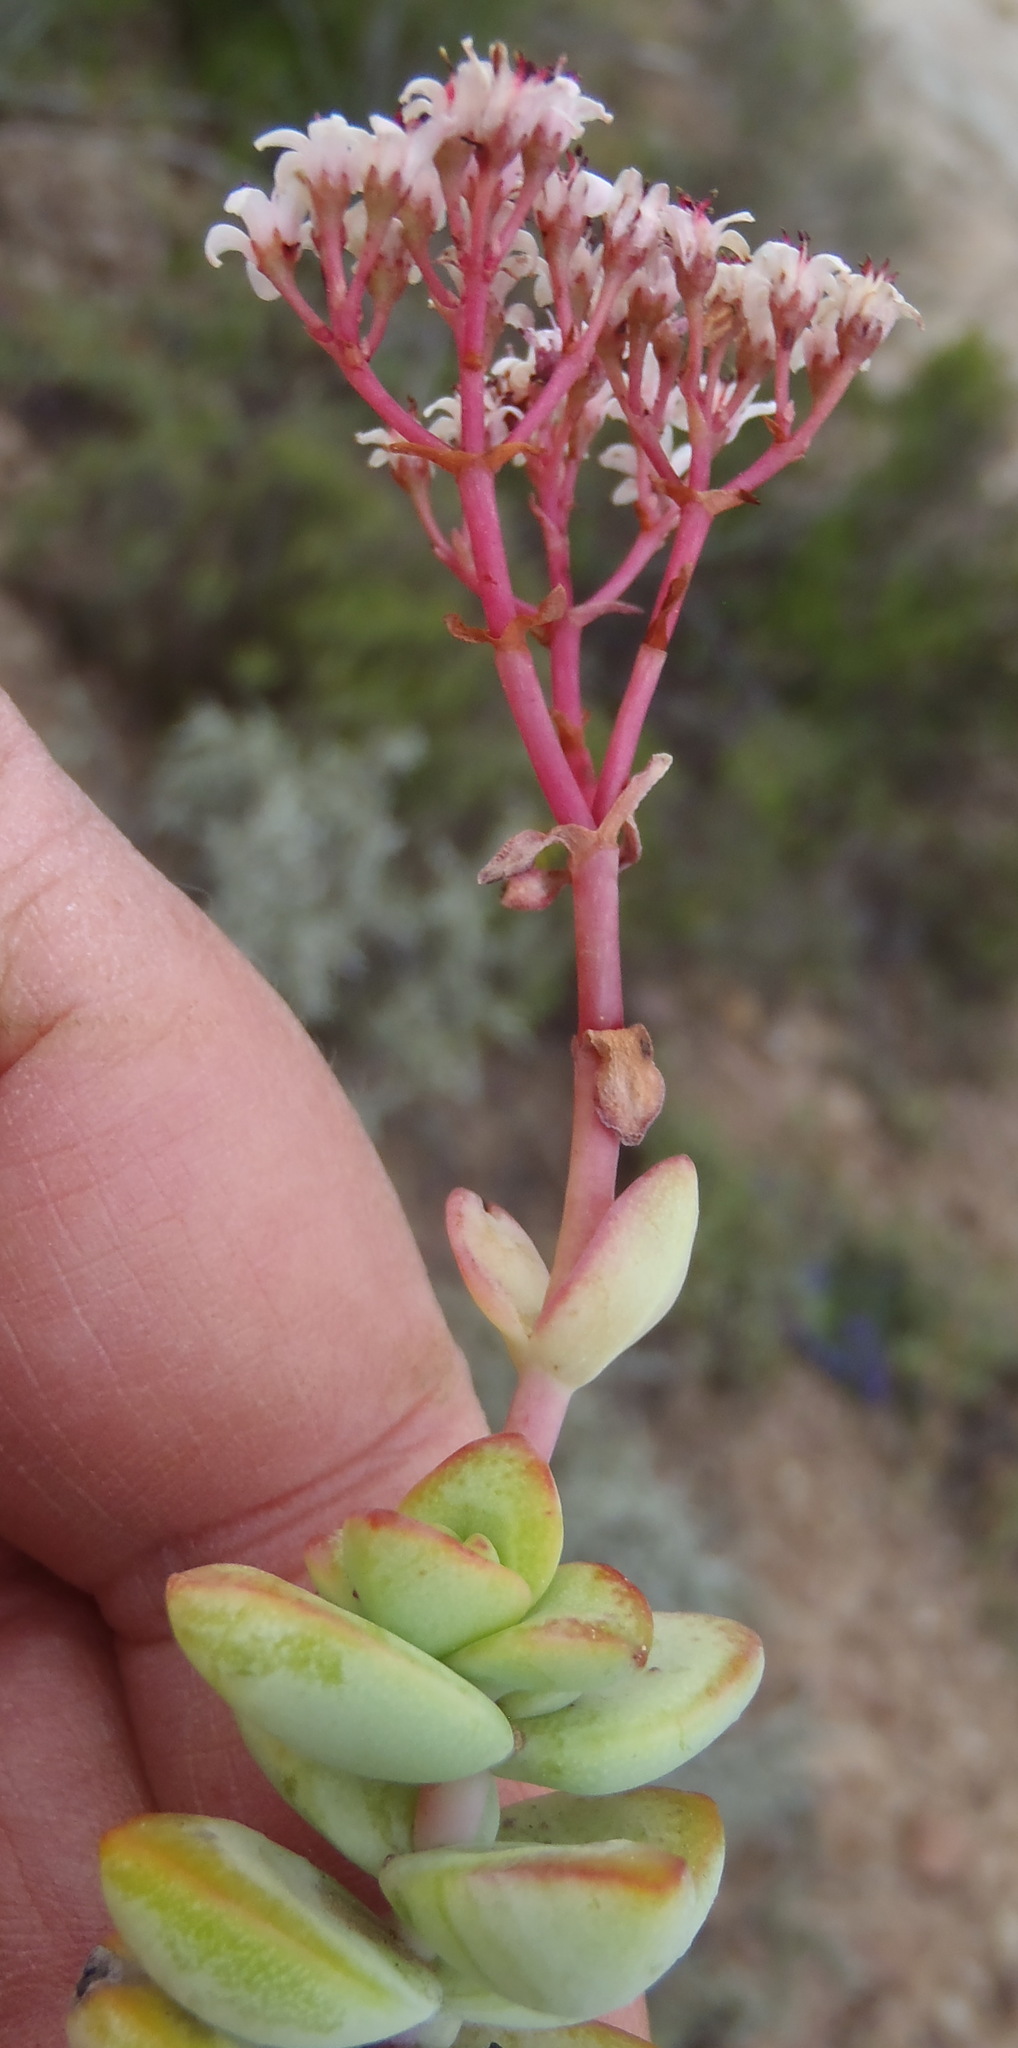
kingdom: Plantae
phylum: Tracheophyta
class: Magnoliopsida
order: Saxifragales
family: Crassulaceae
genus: Crassula
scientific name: Crassula rupestris
